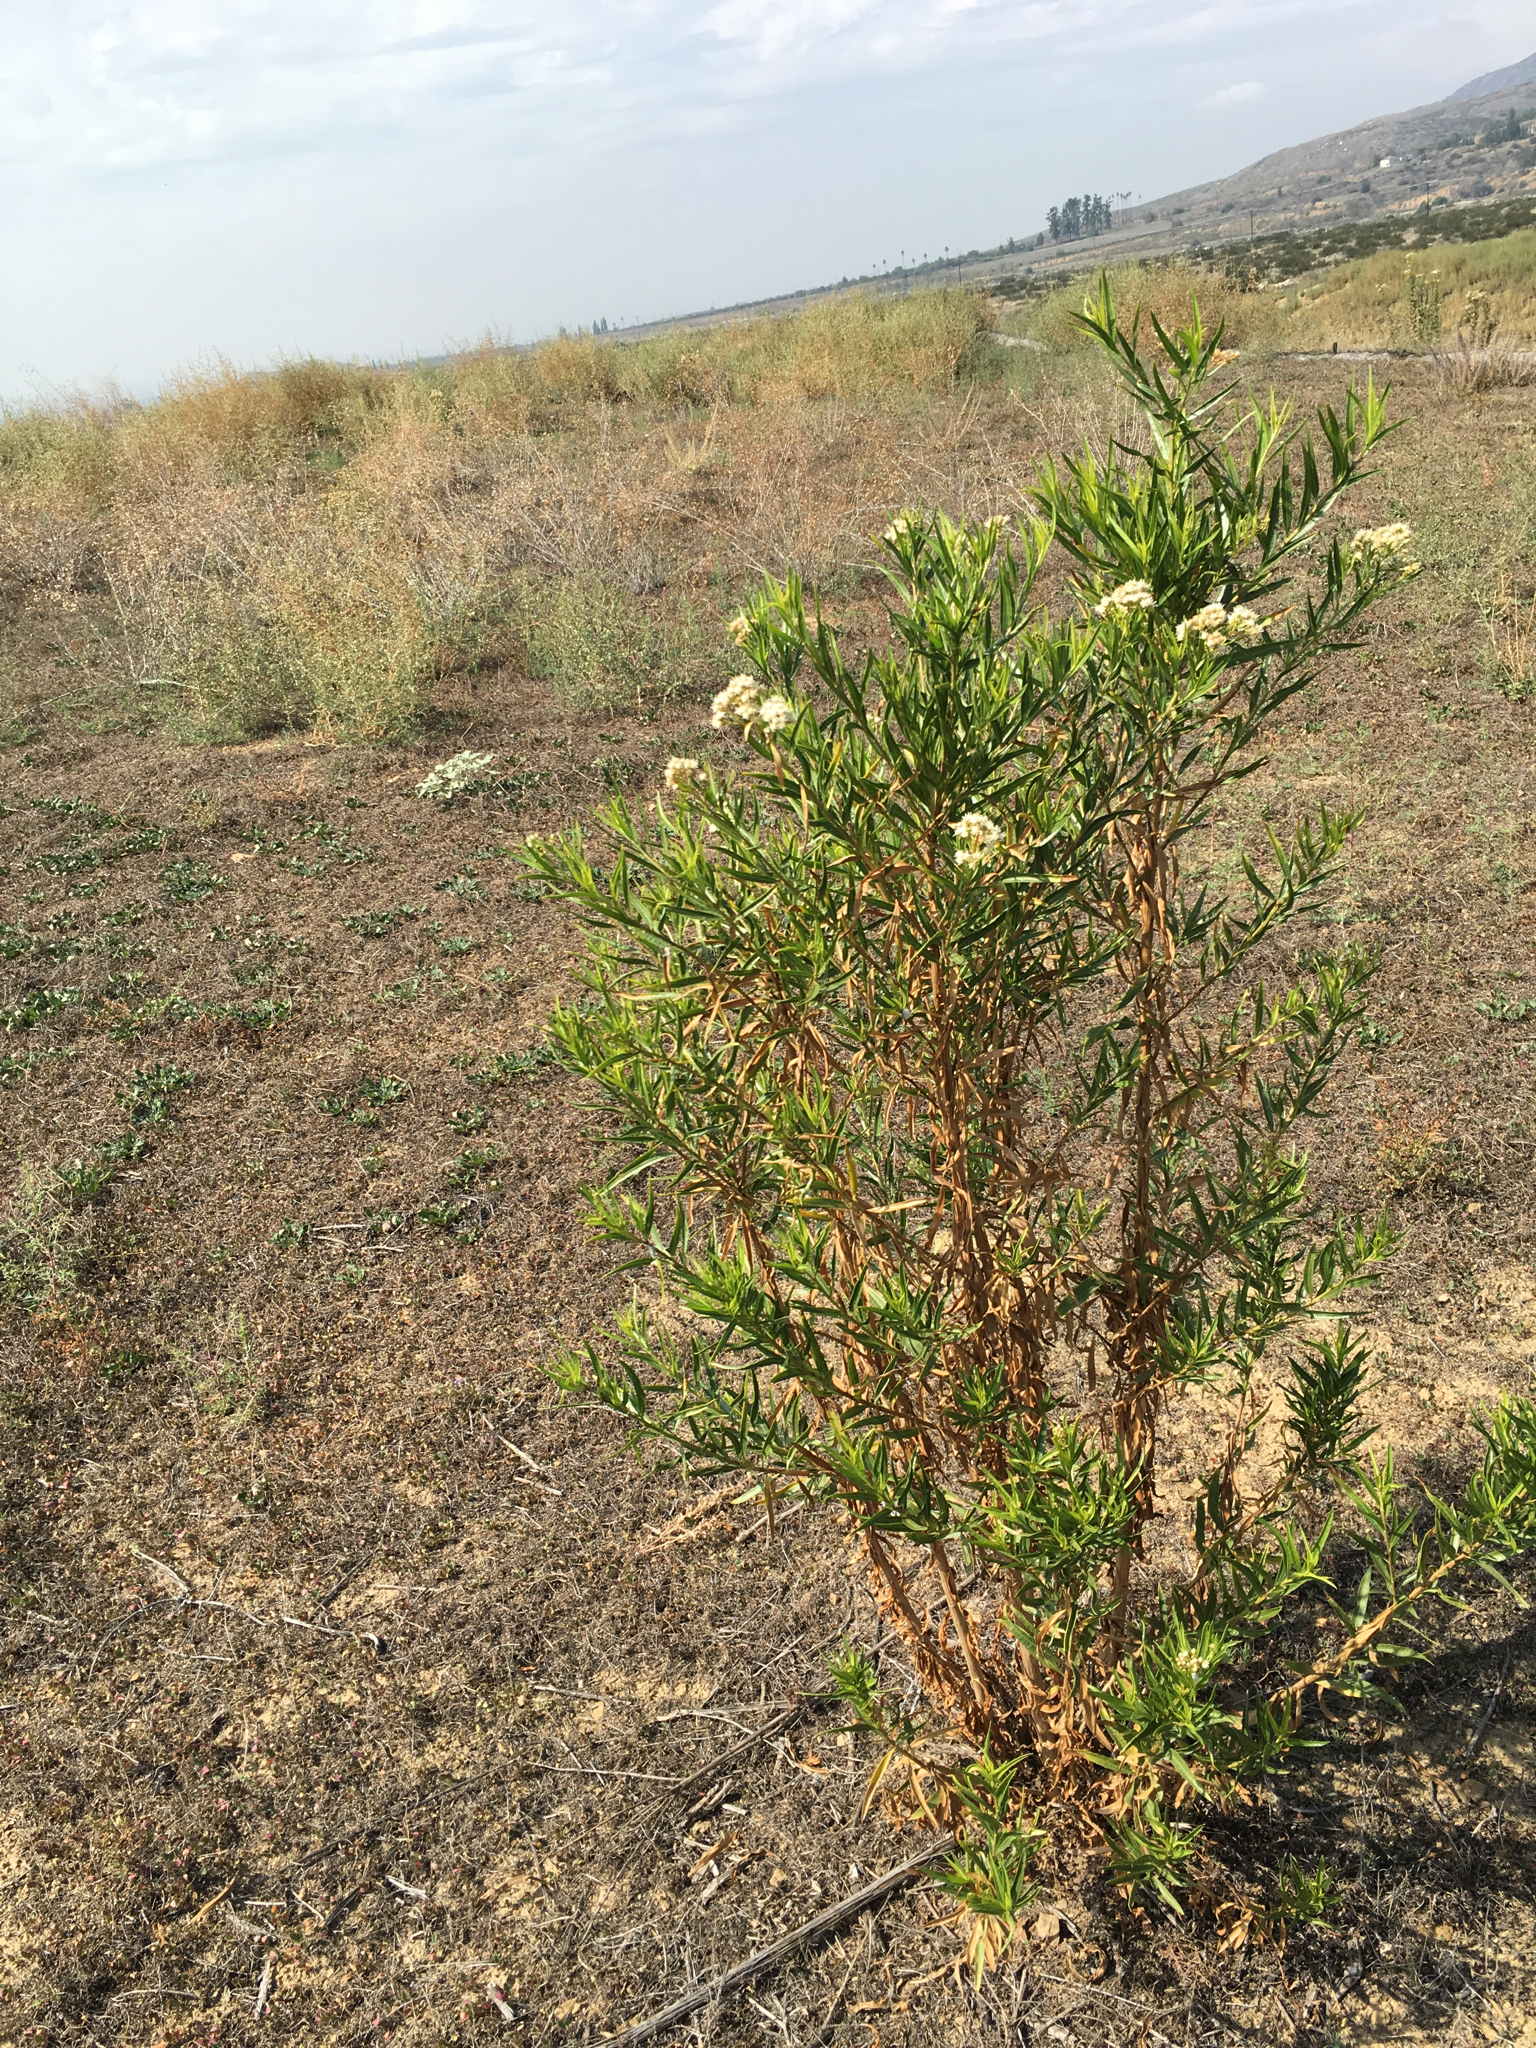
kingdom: Plantae
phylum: Tracheophyta
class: Magnoliopsida
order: Asterales
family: Asteraceae
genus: Baccharis
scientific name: Baccharis salicifolia
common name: Sticky baccharis
